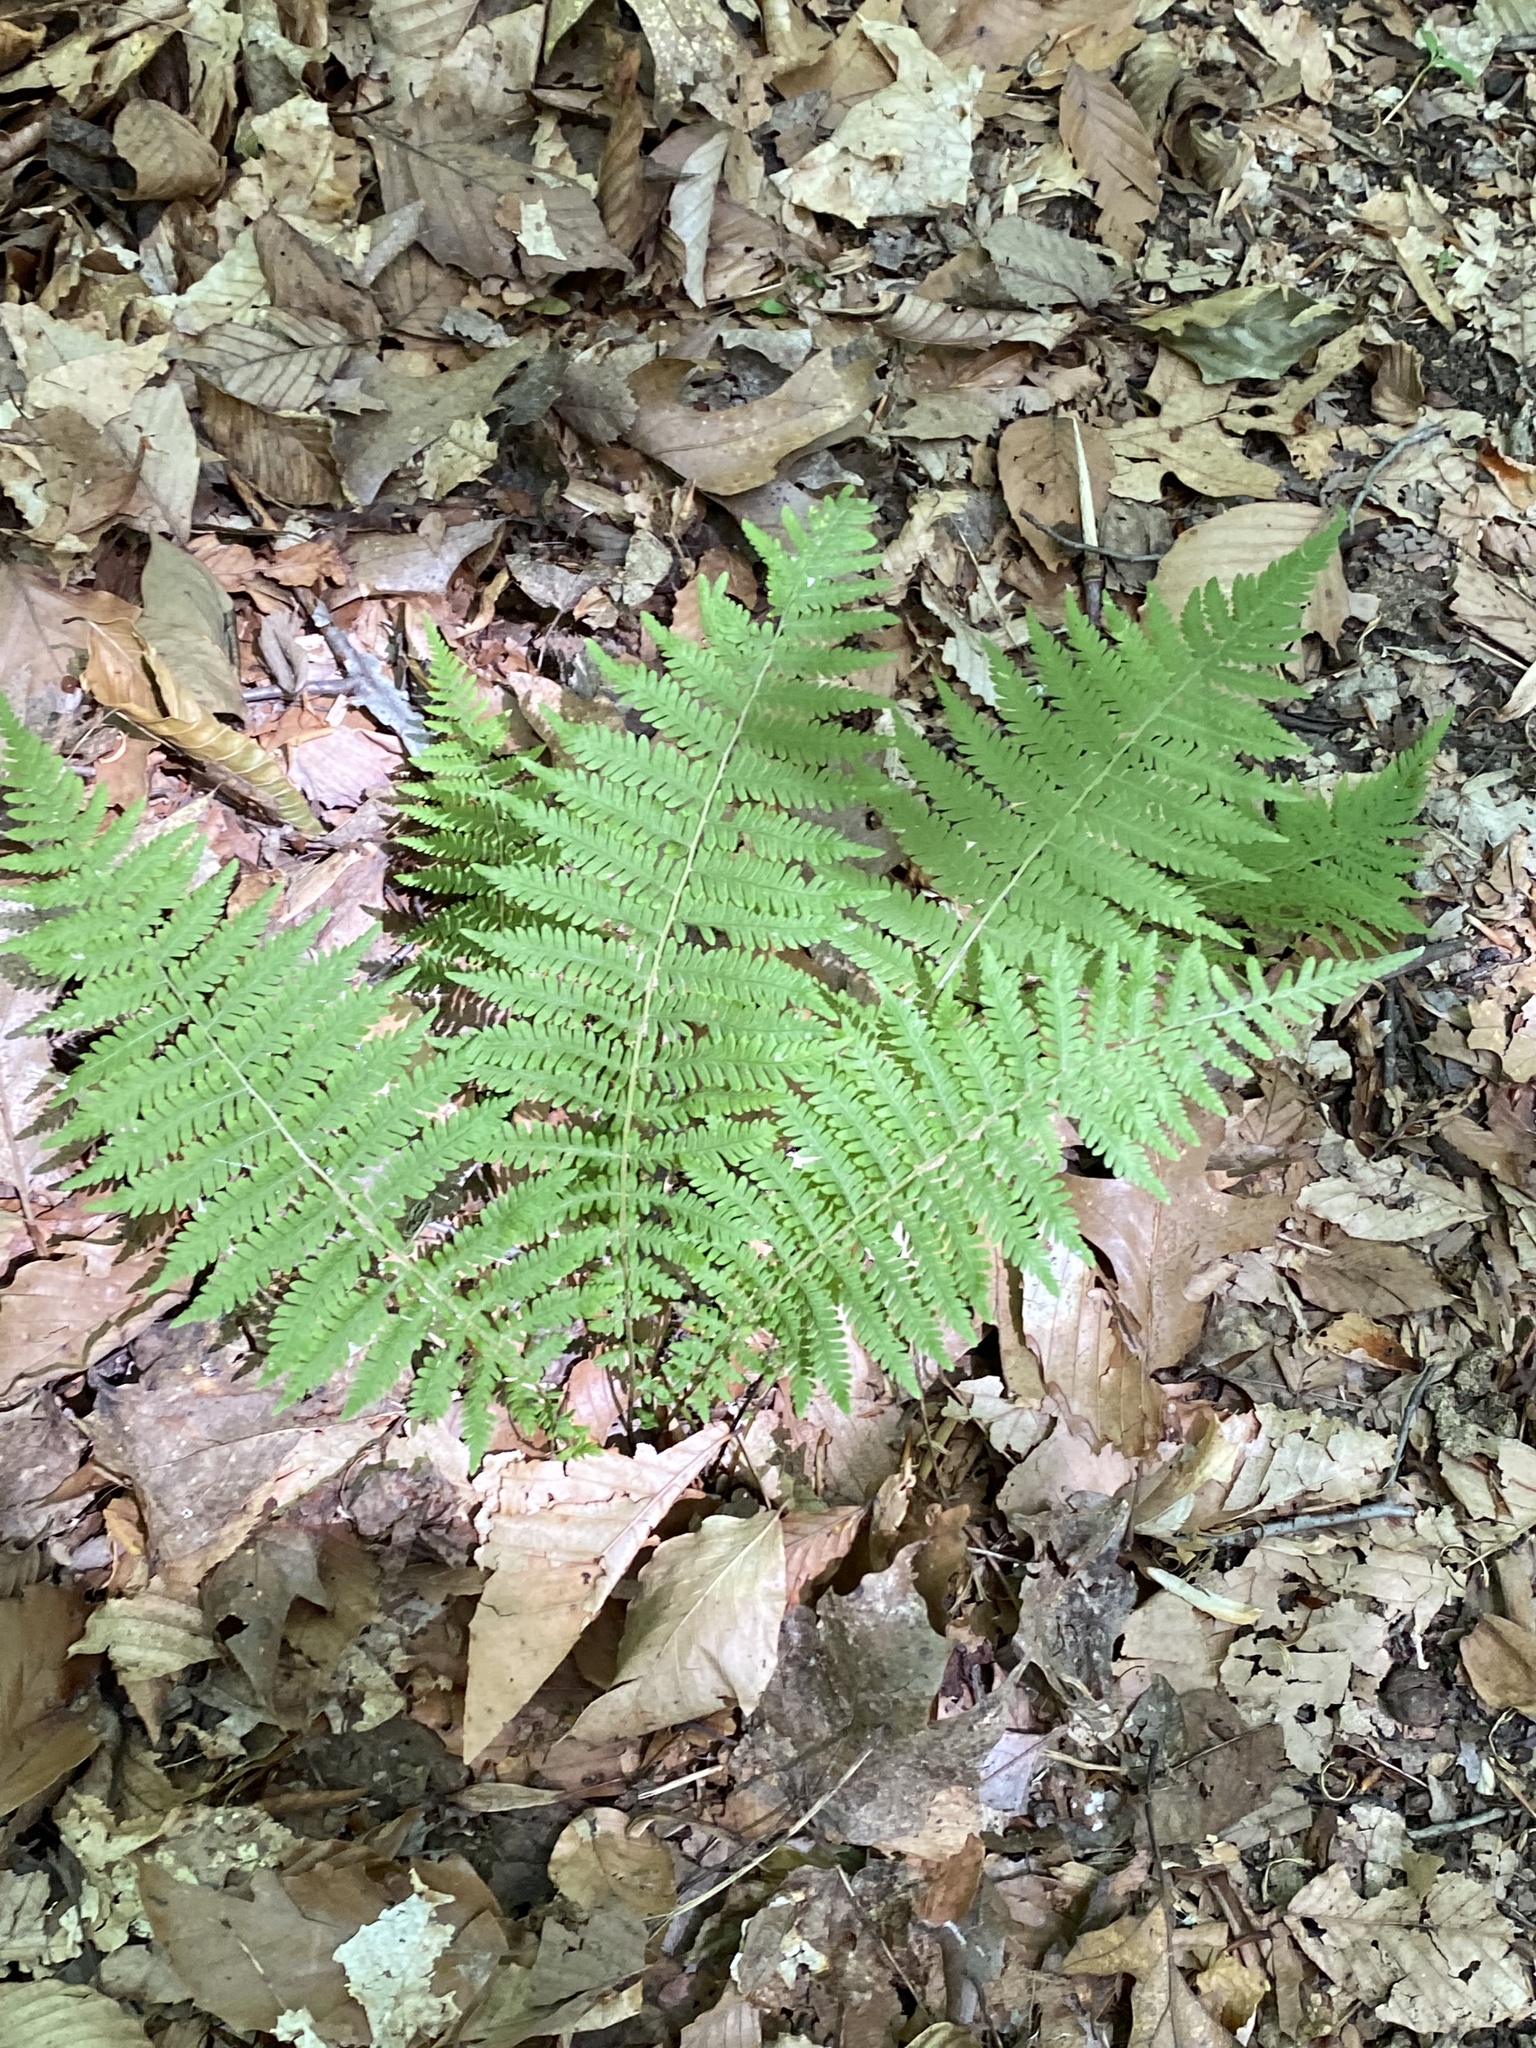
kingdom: Plantae
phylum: Tracheophyta
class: Polypodiopsida
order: Polypodiales
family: Thelypteridaceae
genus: Amauropelta
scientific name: Amauropelta noveboracensis
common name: New york fern
